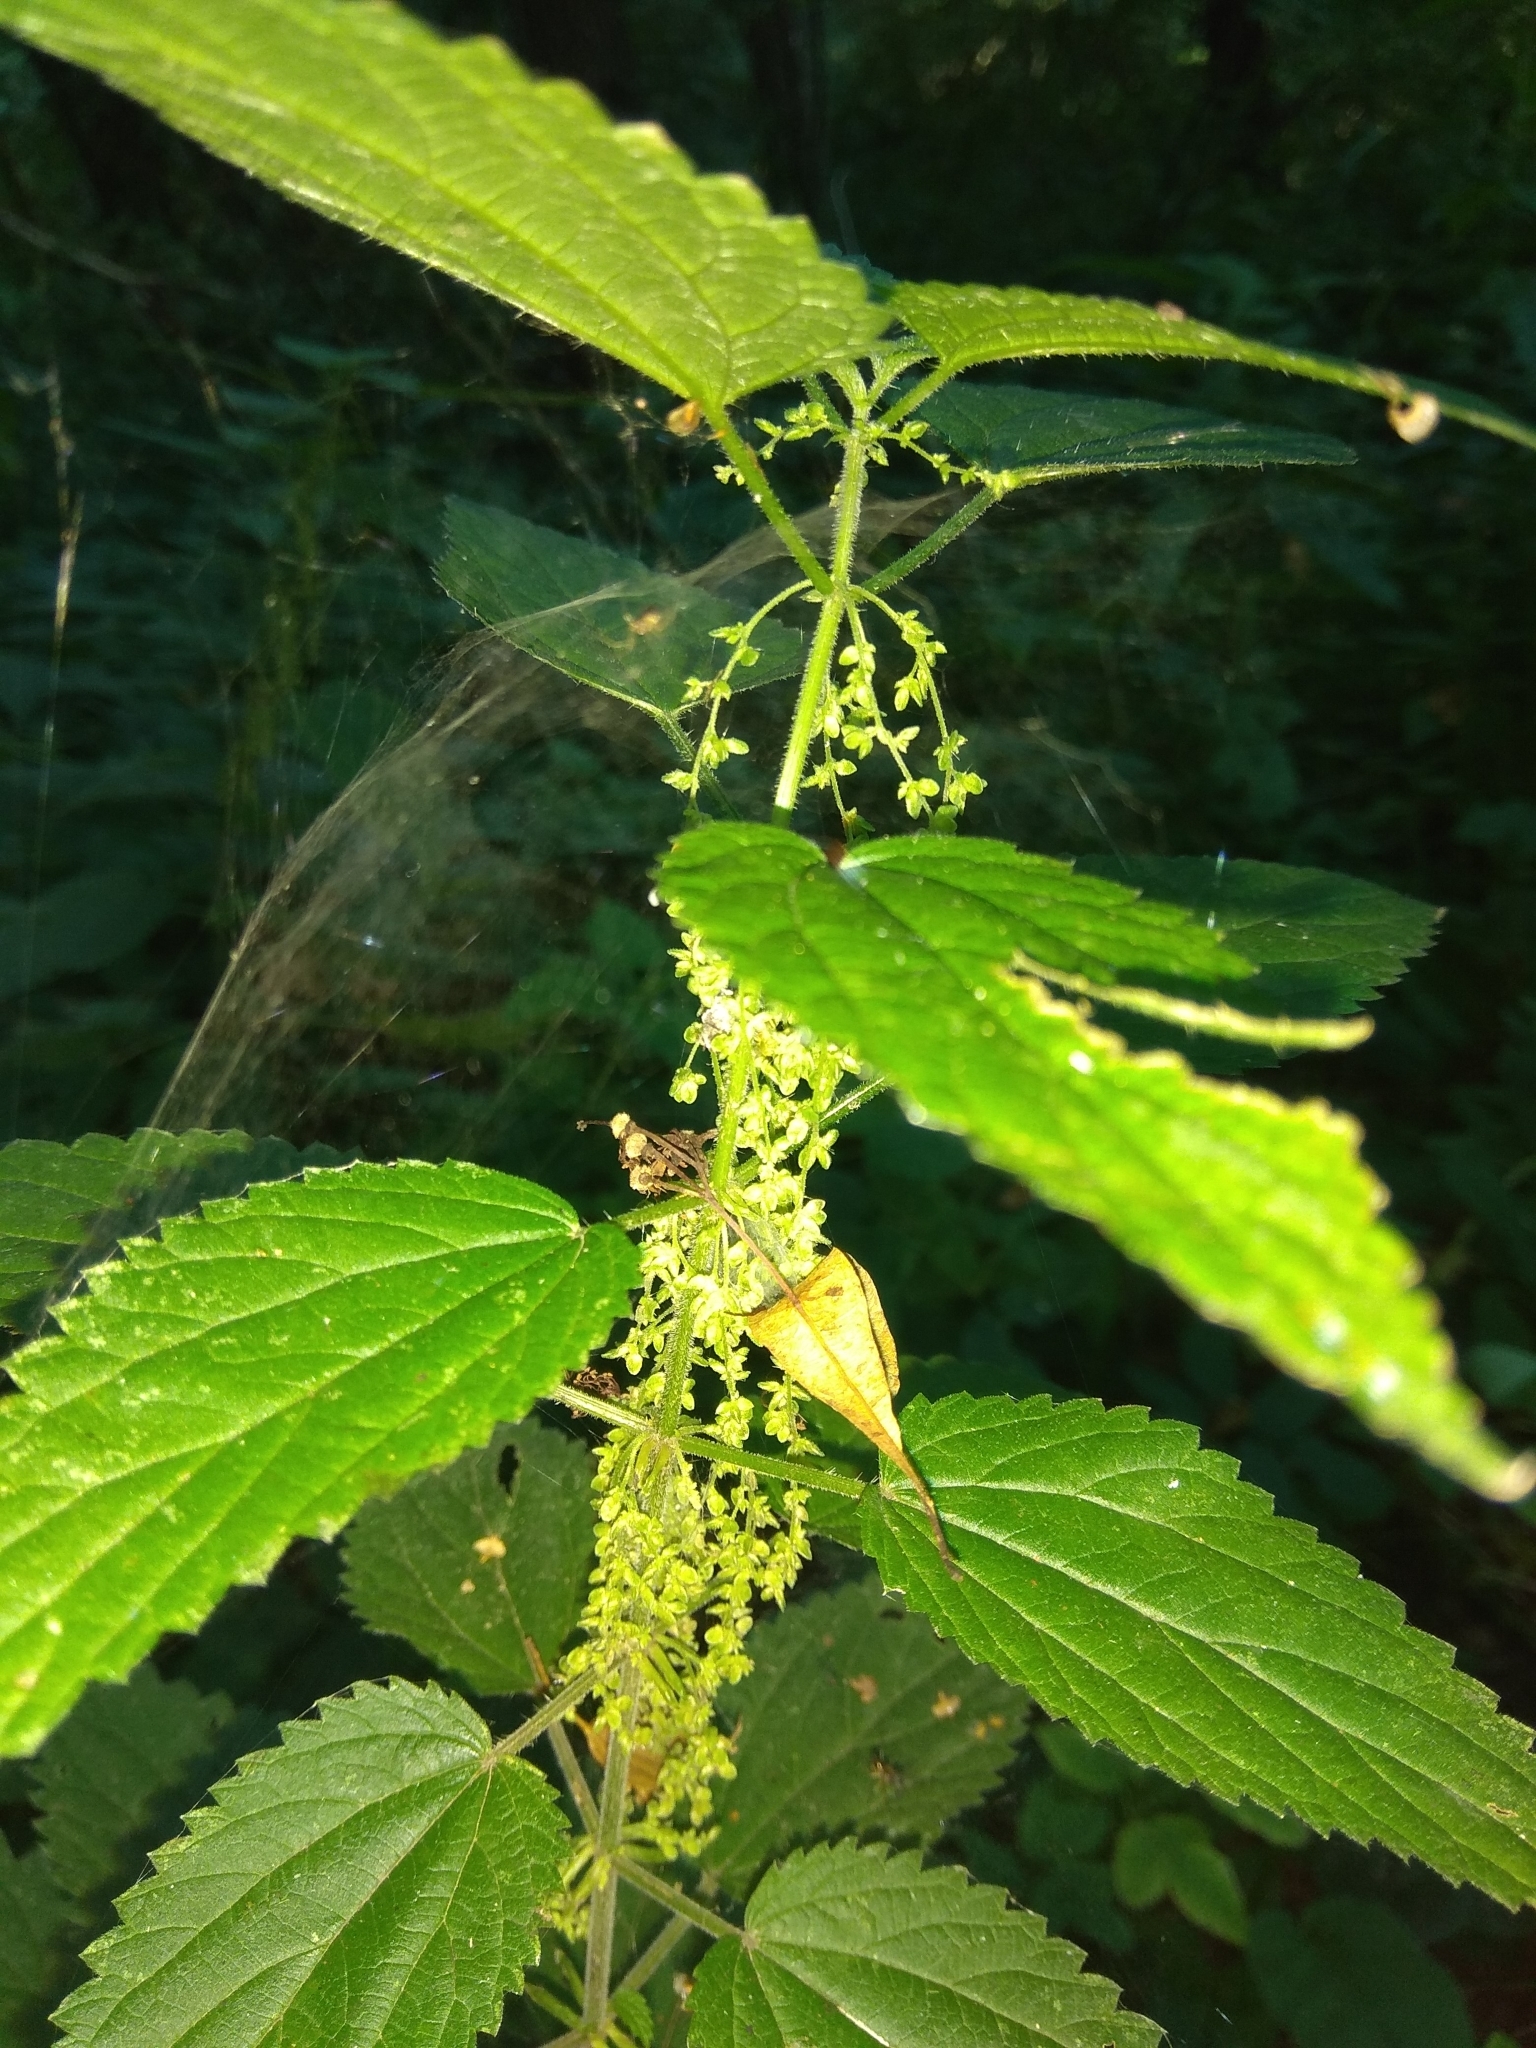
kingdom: Plantae
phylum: Tracheophyta
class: Magnoliopsida
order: Rosales
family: Urticaceae
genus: Urtica
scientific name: Urtica dioica
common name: Common nettle
